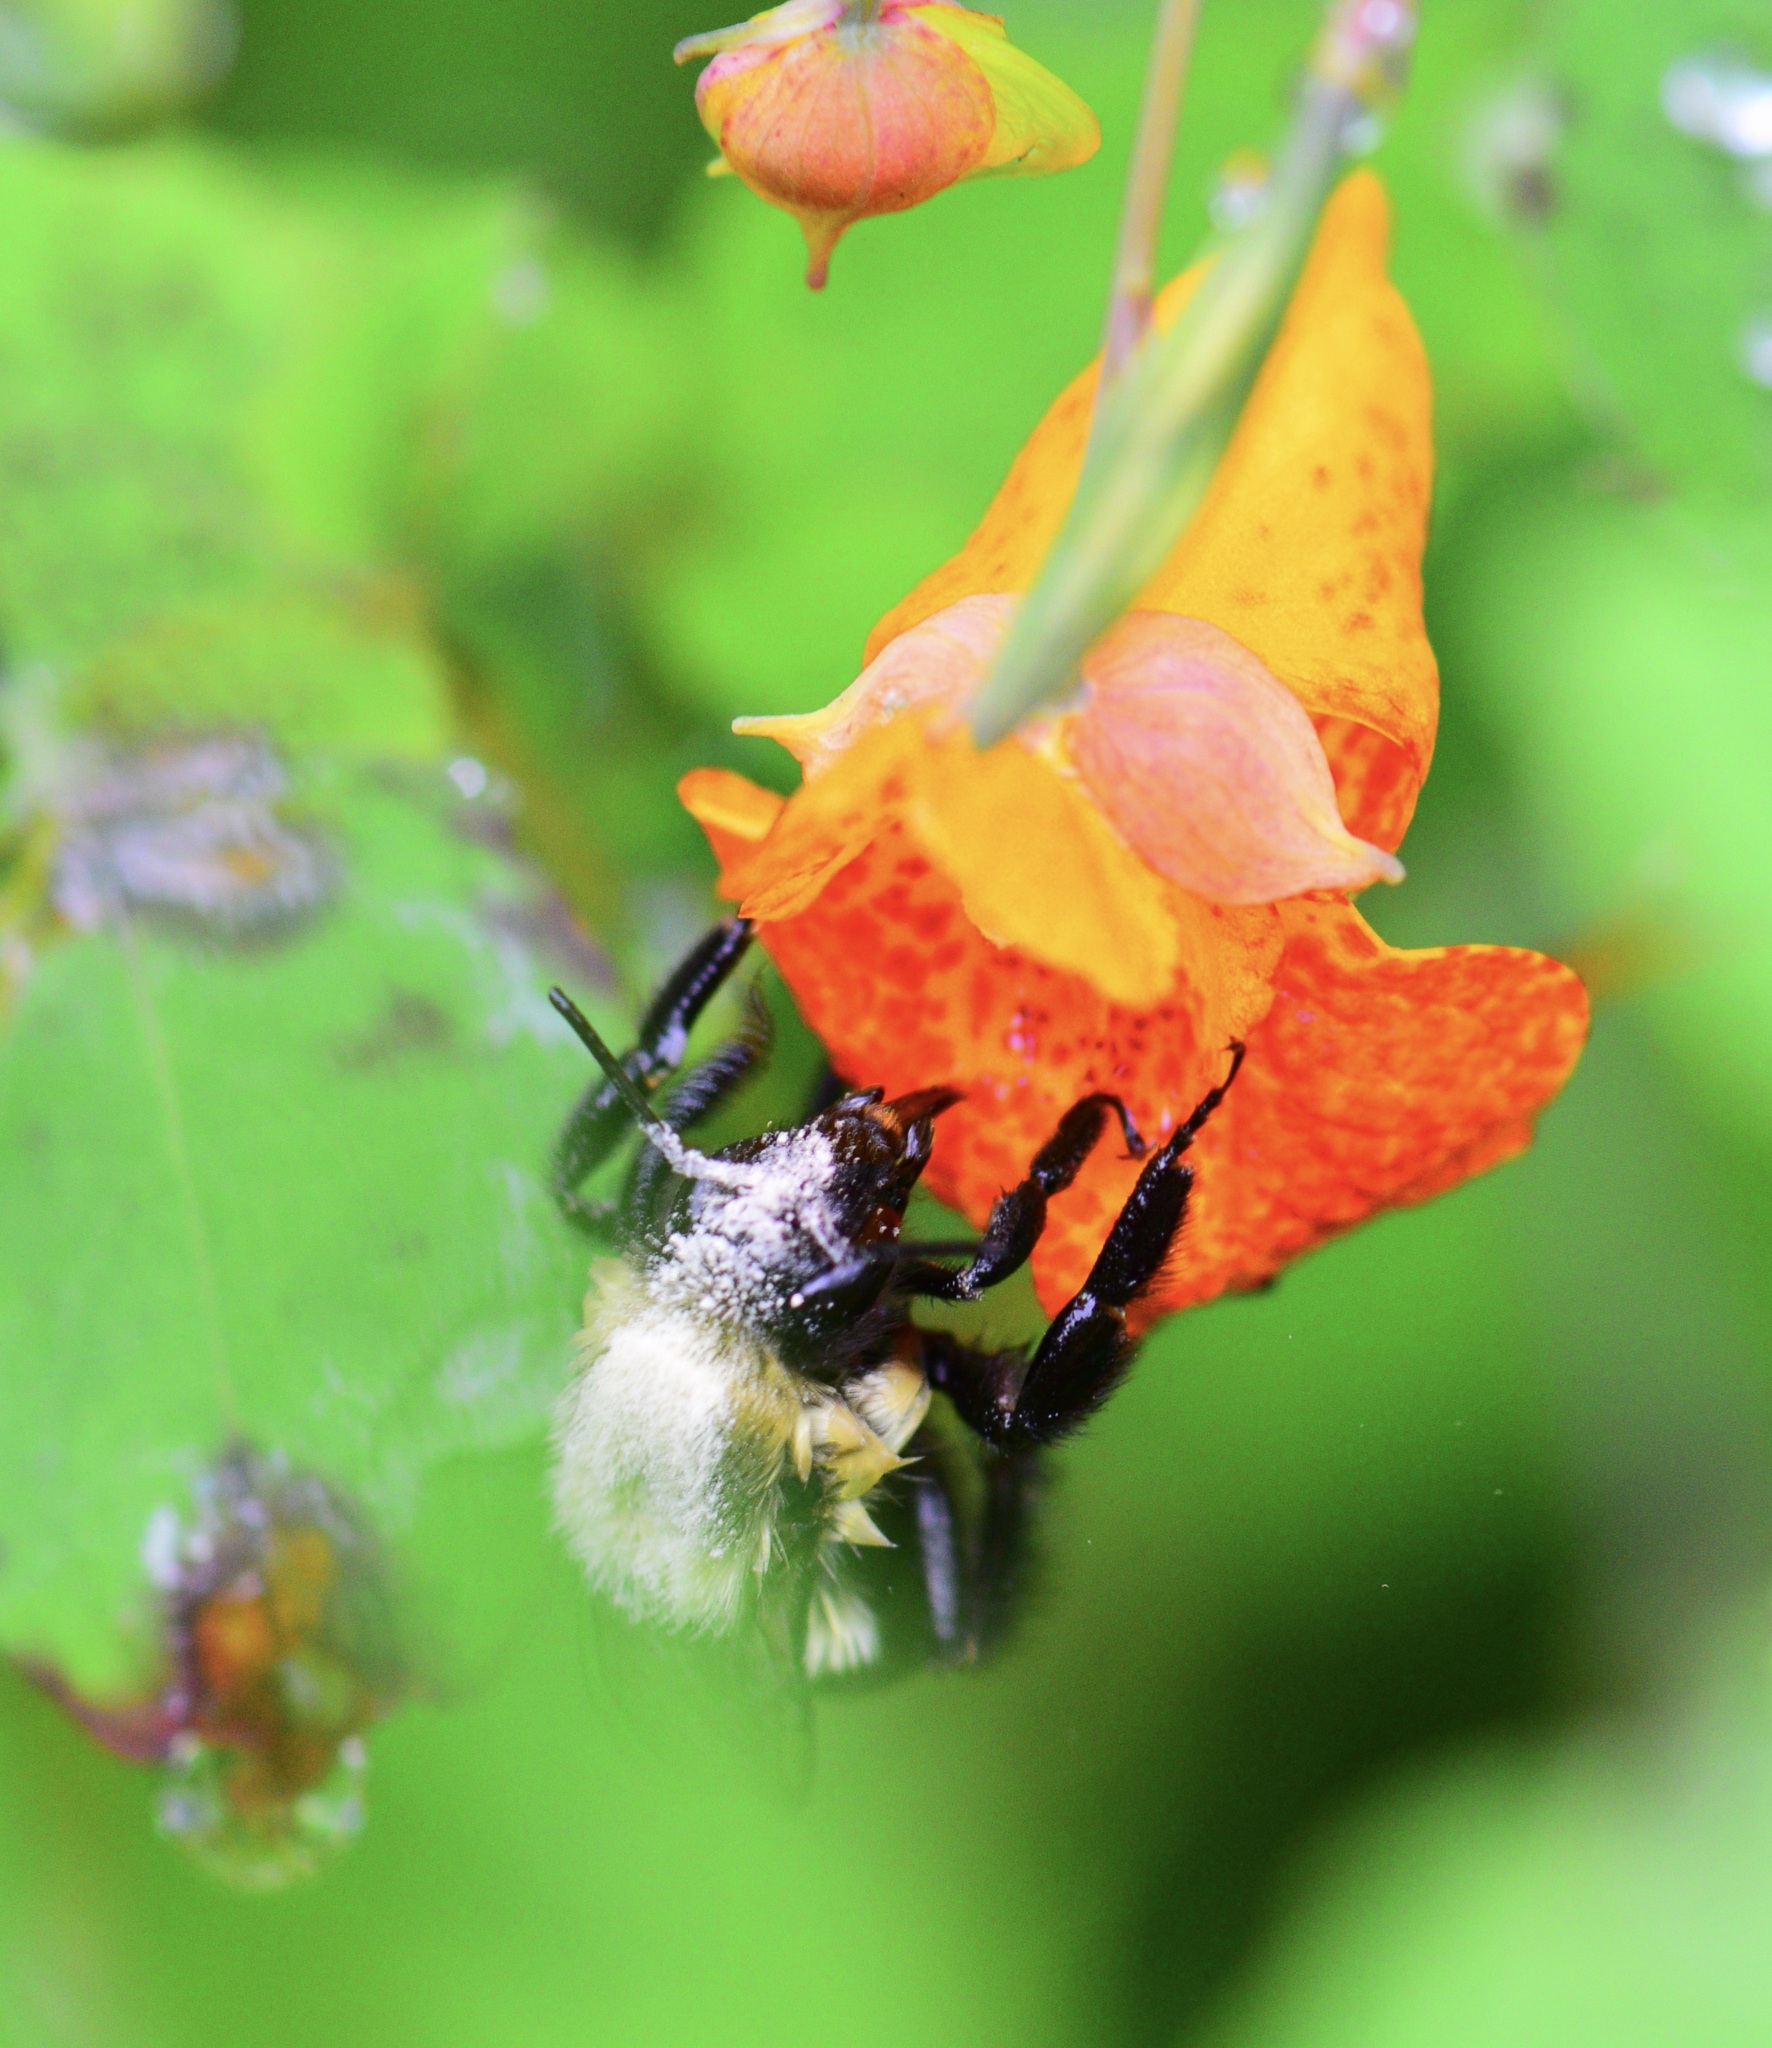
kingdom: Animalia
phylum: Arthropoda
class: Insecta
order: Hymenoptera
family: Apidae
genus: Bombus
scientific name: Bombus impatiens
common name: Common eastern bumble bee
